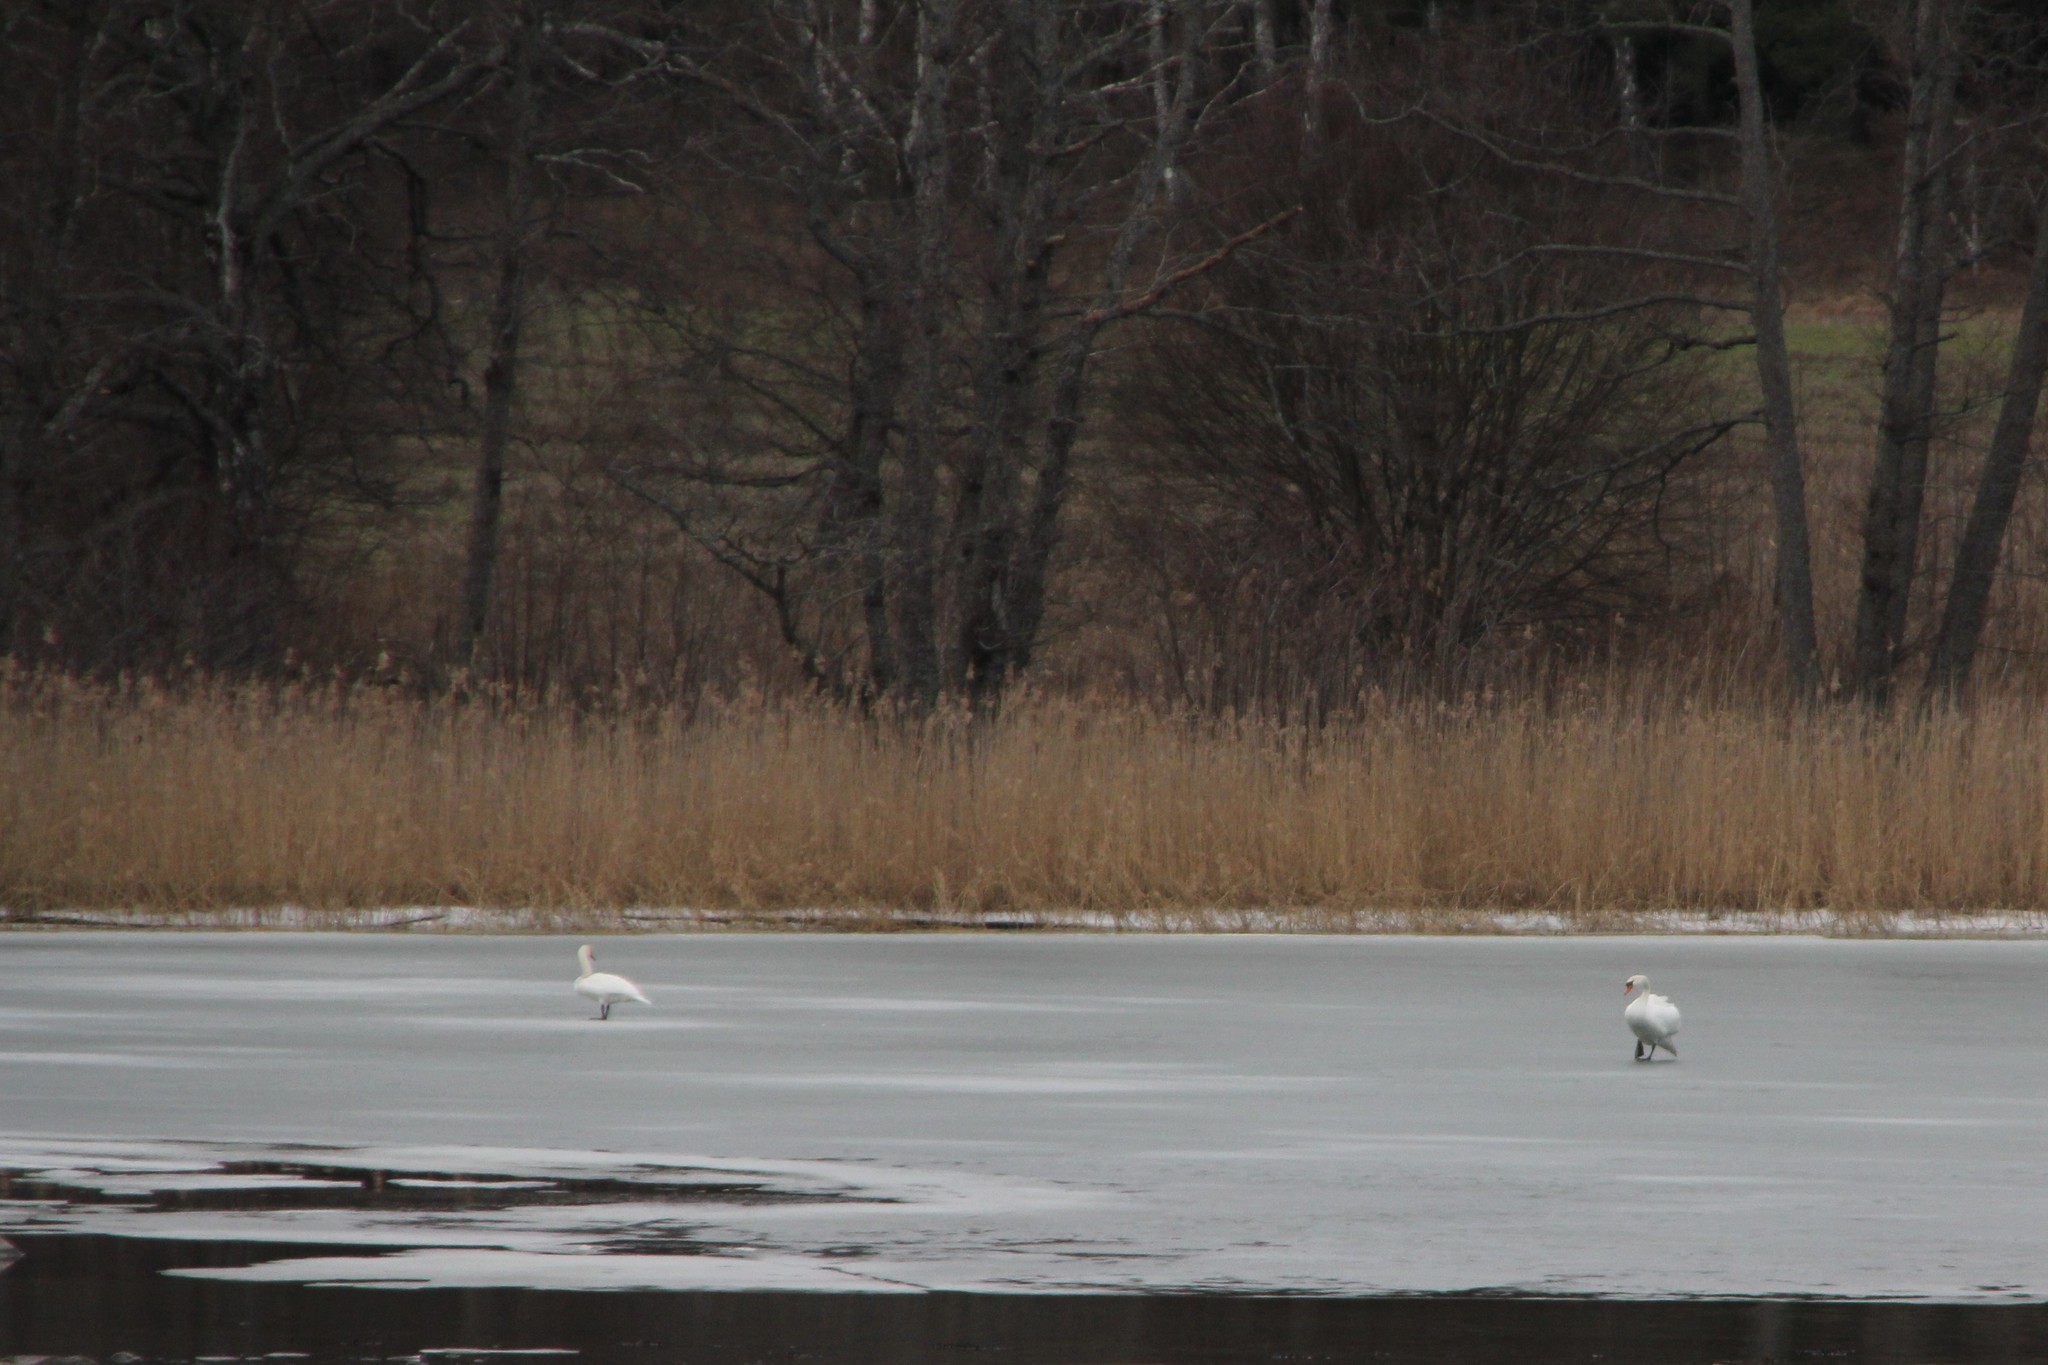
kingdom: Animalia
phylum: Chordata
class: Aves
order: Anseriformes
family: Anatidae
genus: Cygnus
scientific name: Cygnus olor
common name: Mute swan
